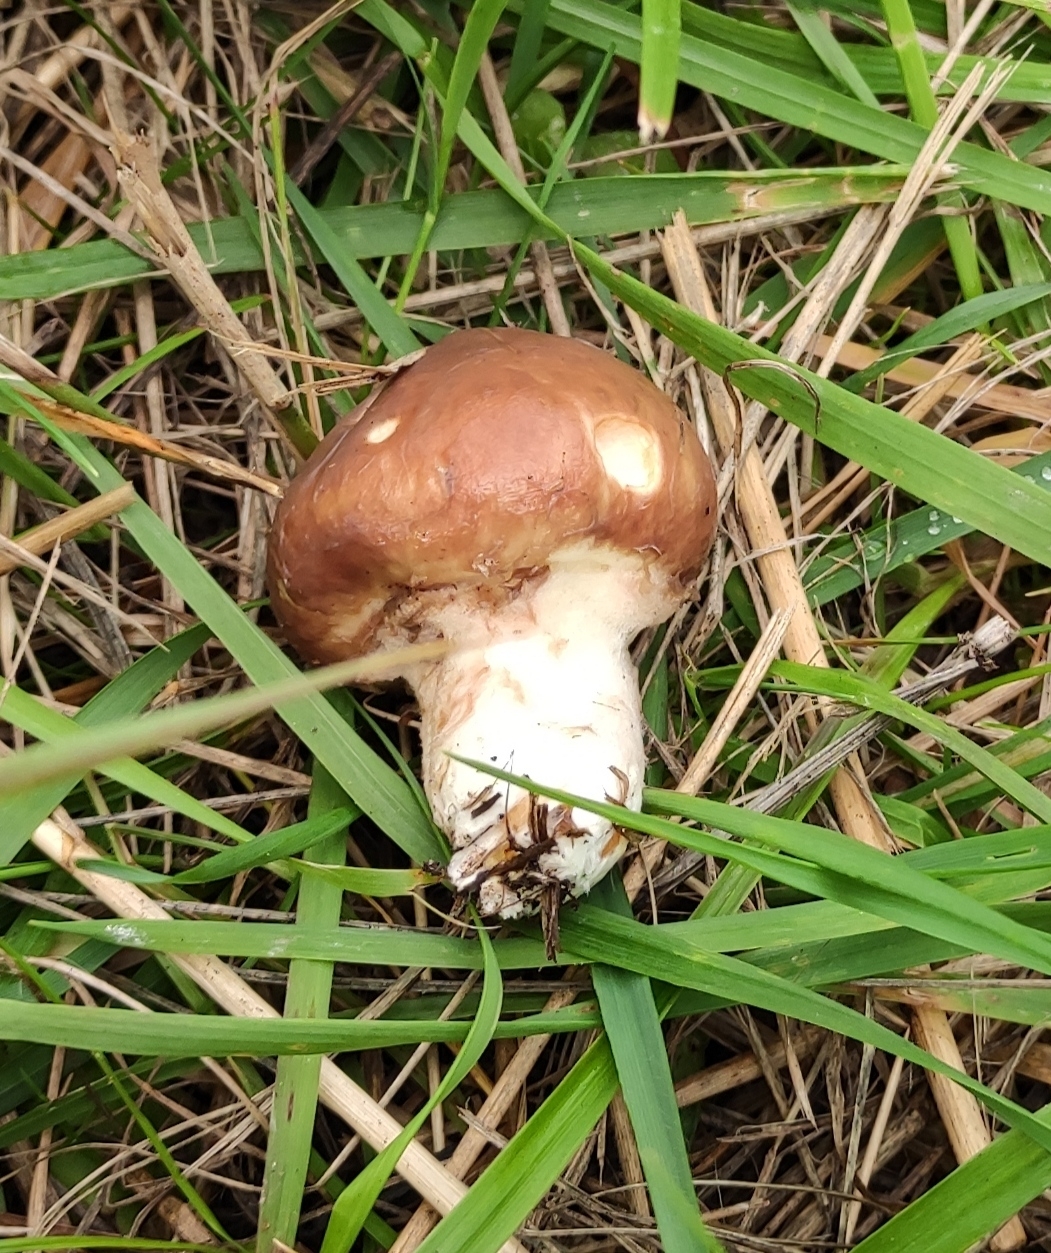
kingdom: Fungi
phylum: Basidiomycota
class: Agaricomycetes
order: Boletales
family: Suillaceae
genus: Suillus
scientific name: Suillus luteus
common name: Slippery jack
